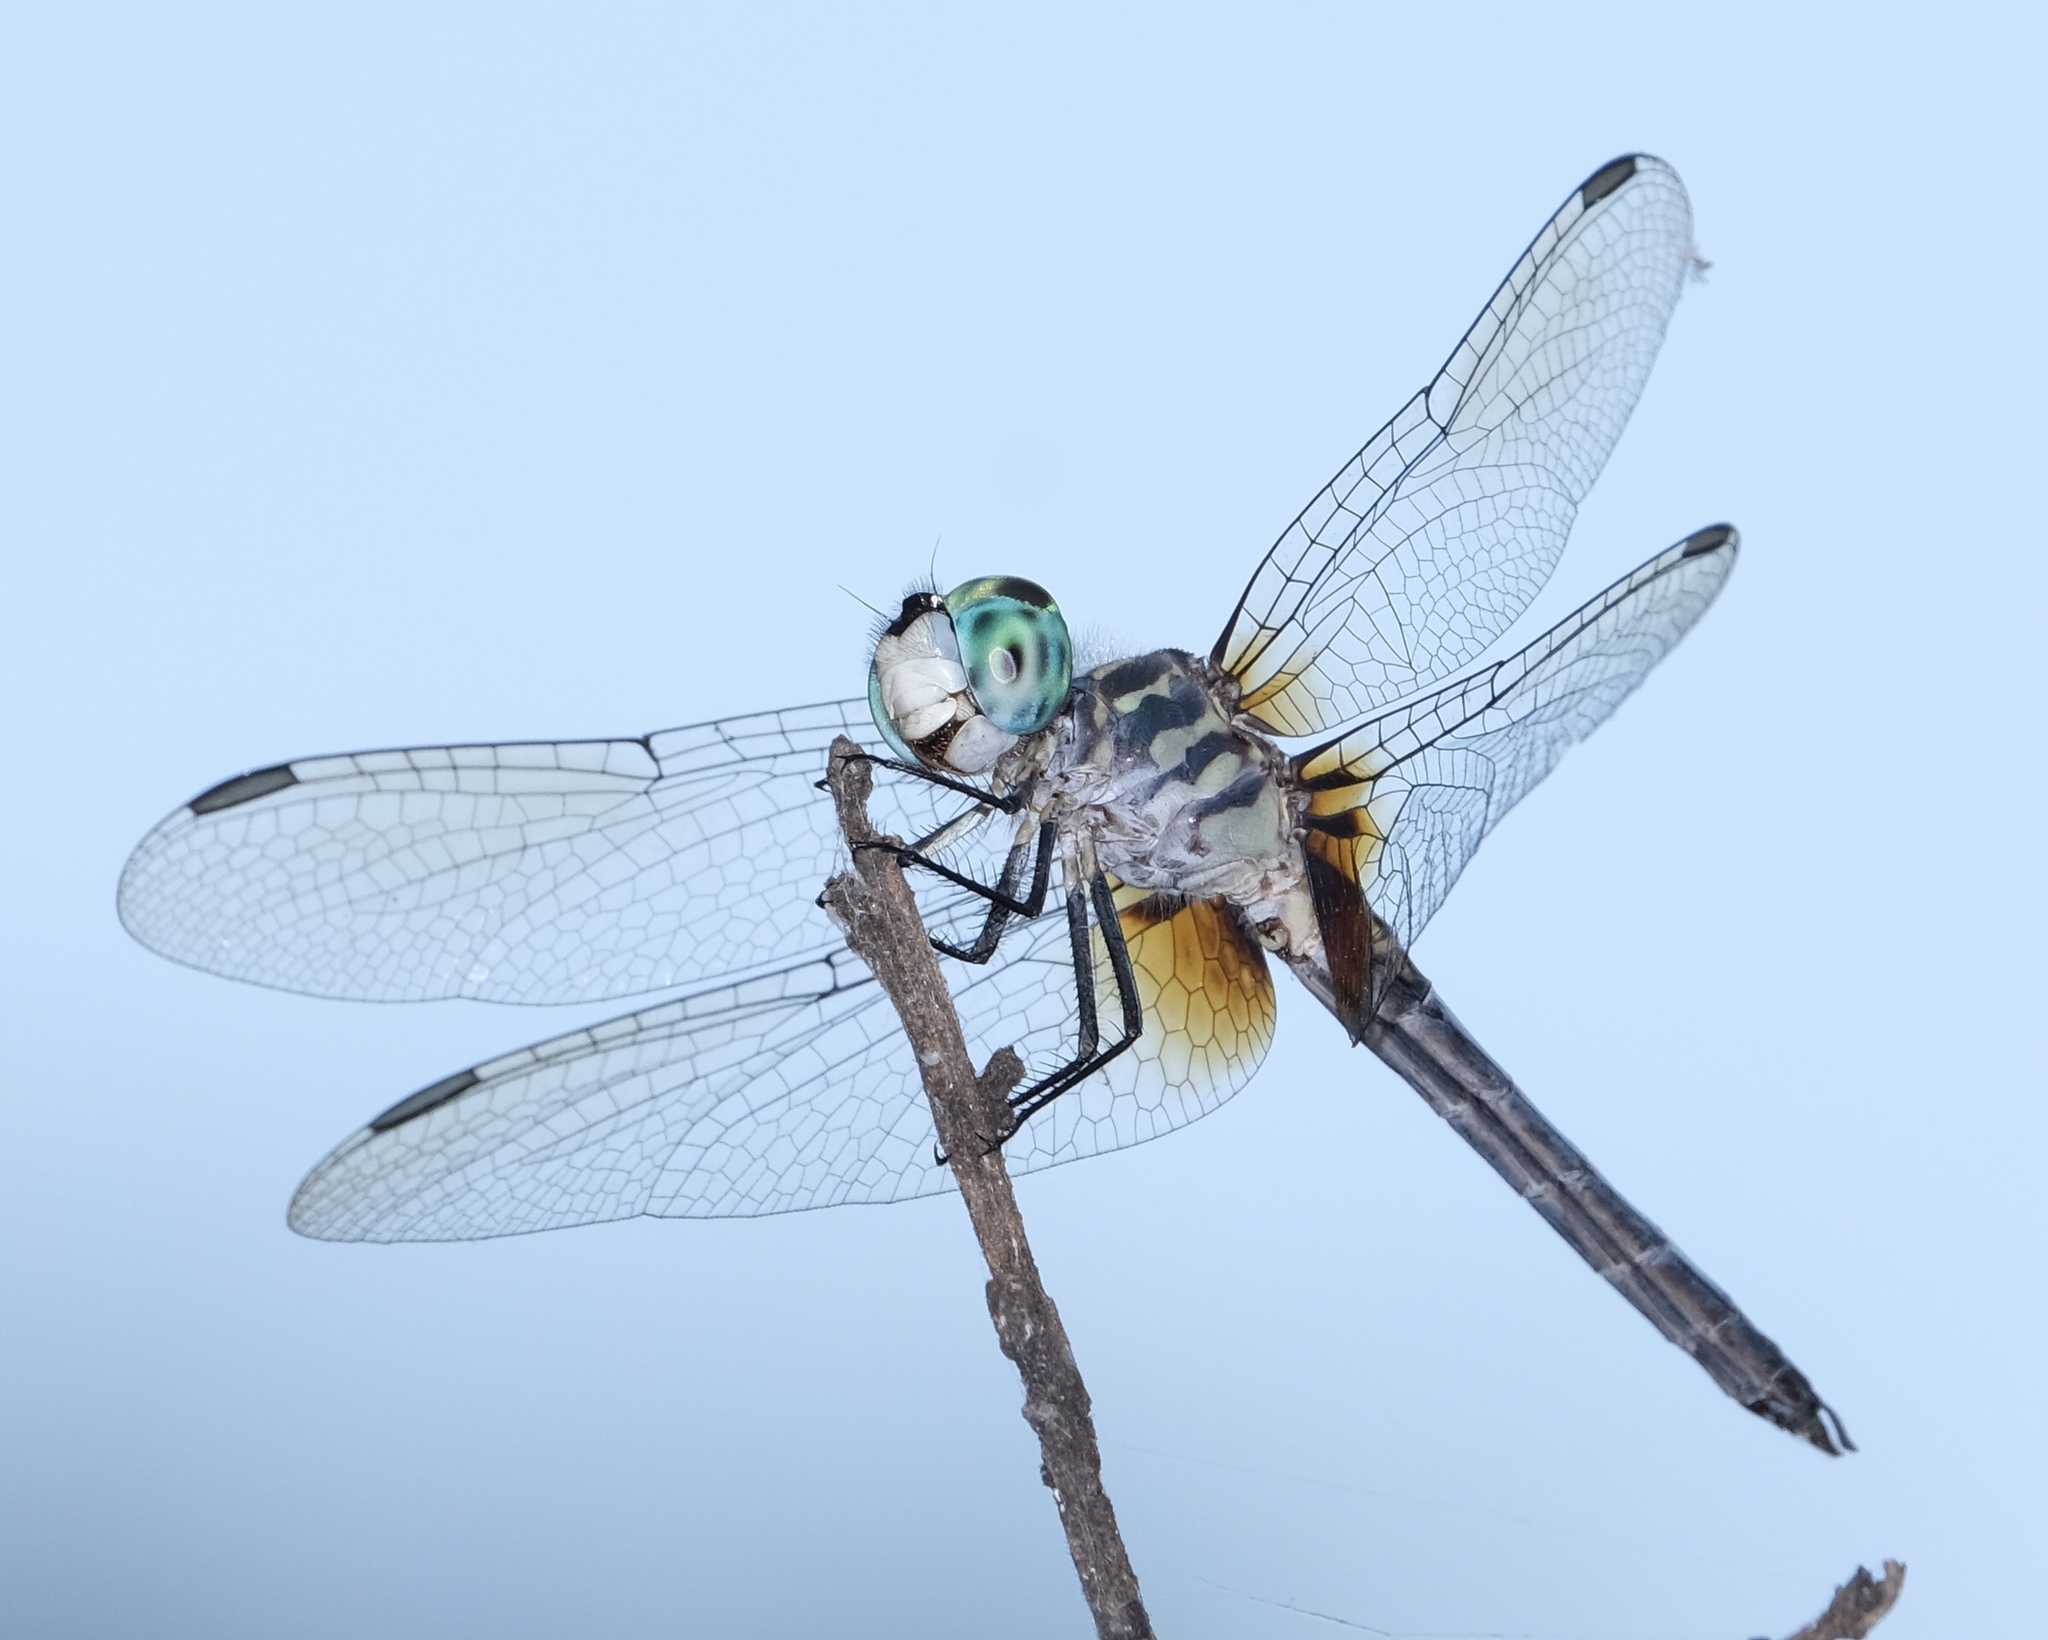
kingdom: Animalia
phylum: Arthropoda
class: Insecta
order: Odonata
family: Libellulidae
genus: Pachydiplax
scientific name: Pachydiplax longipennis
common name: Blue dasher
